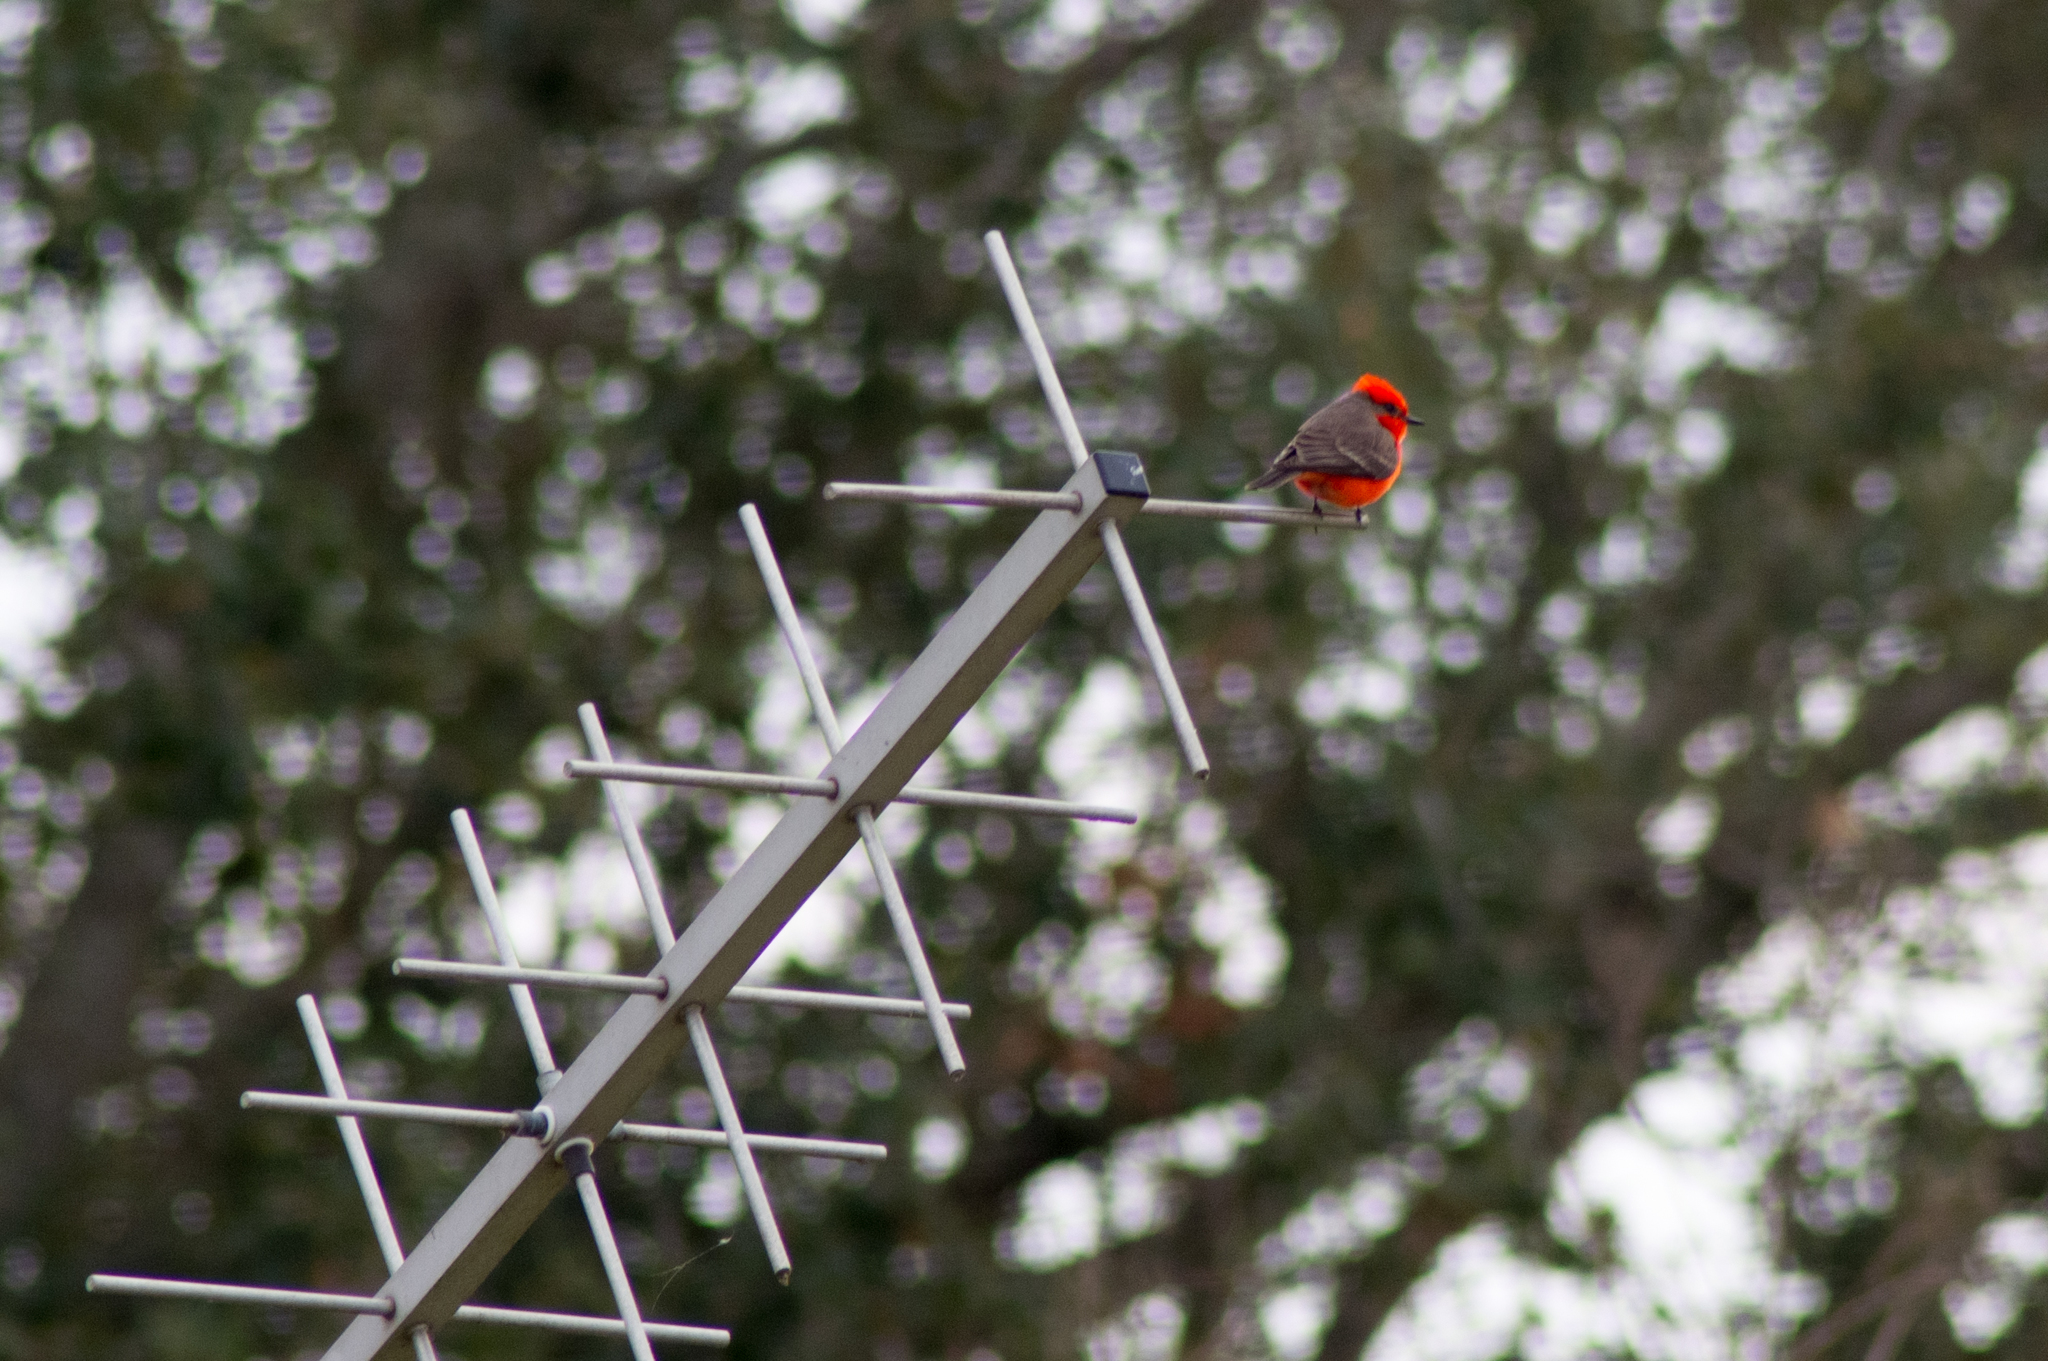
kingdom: Animalia
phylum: Chordata
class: Aves
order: Passeriformes
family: Tyrannidae
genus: Pyrocephalus
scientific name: Pyrocephalus rubinus
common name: Vermilion flycatcher
